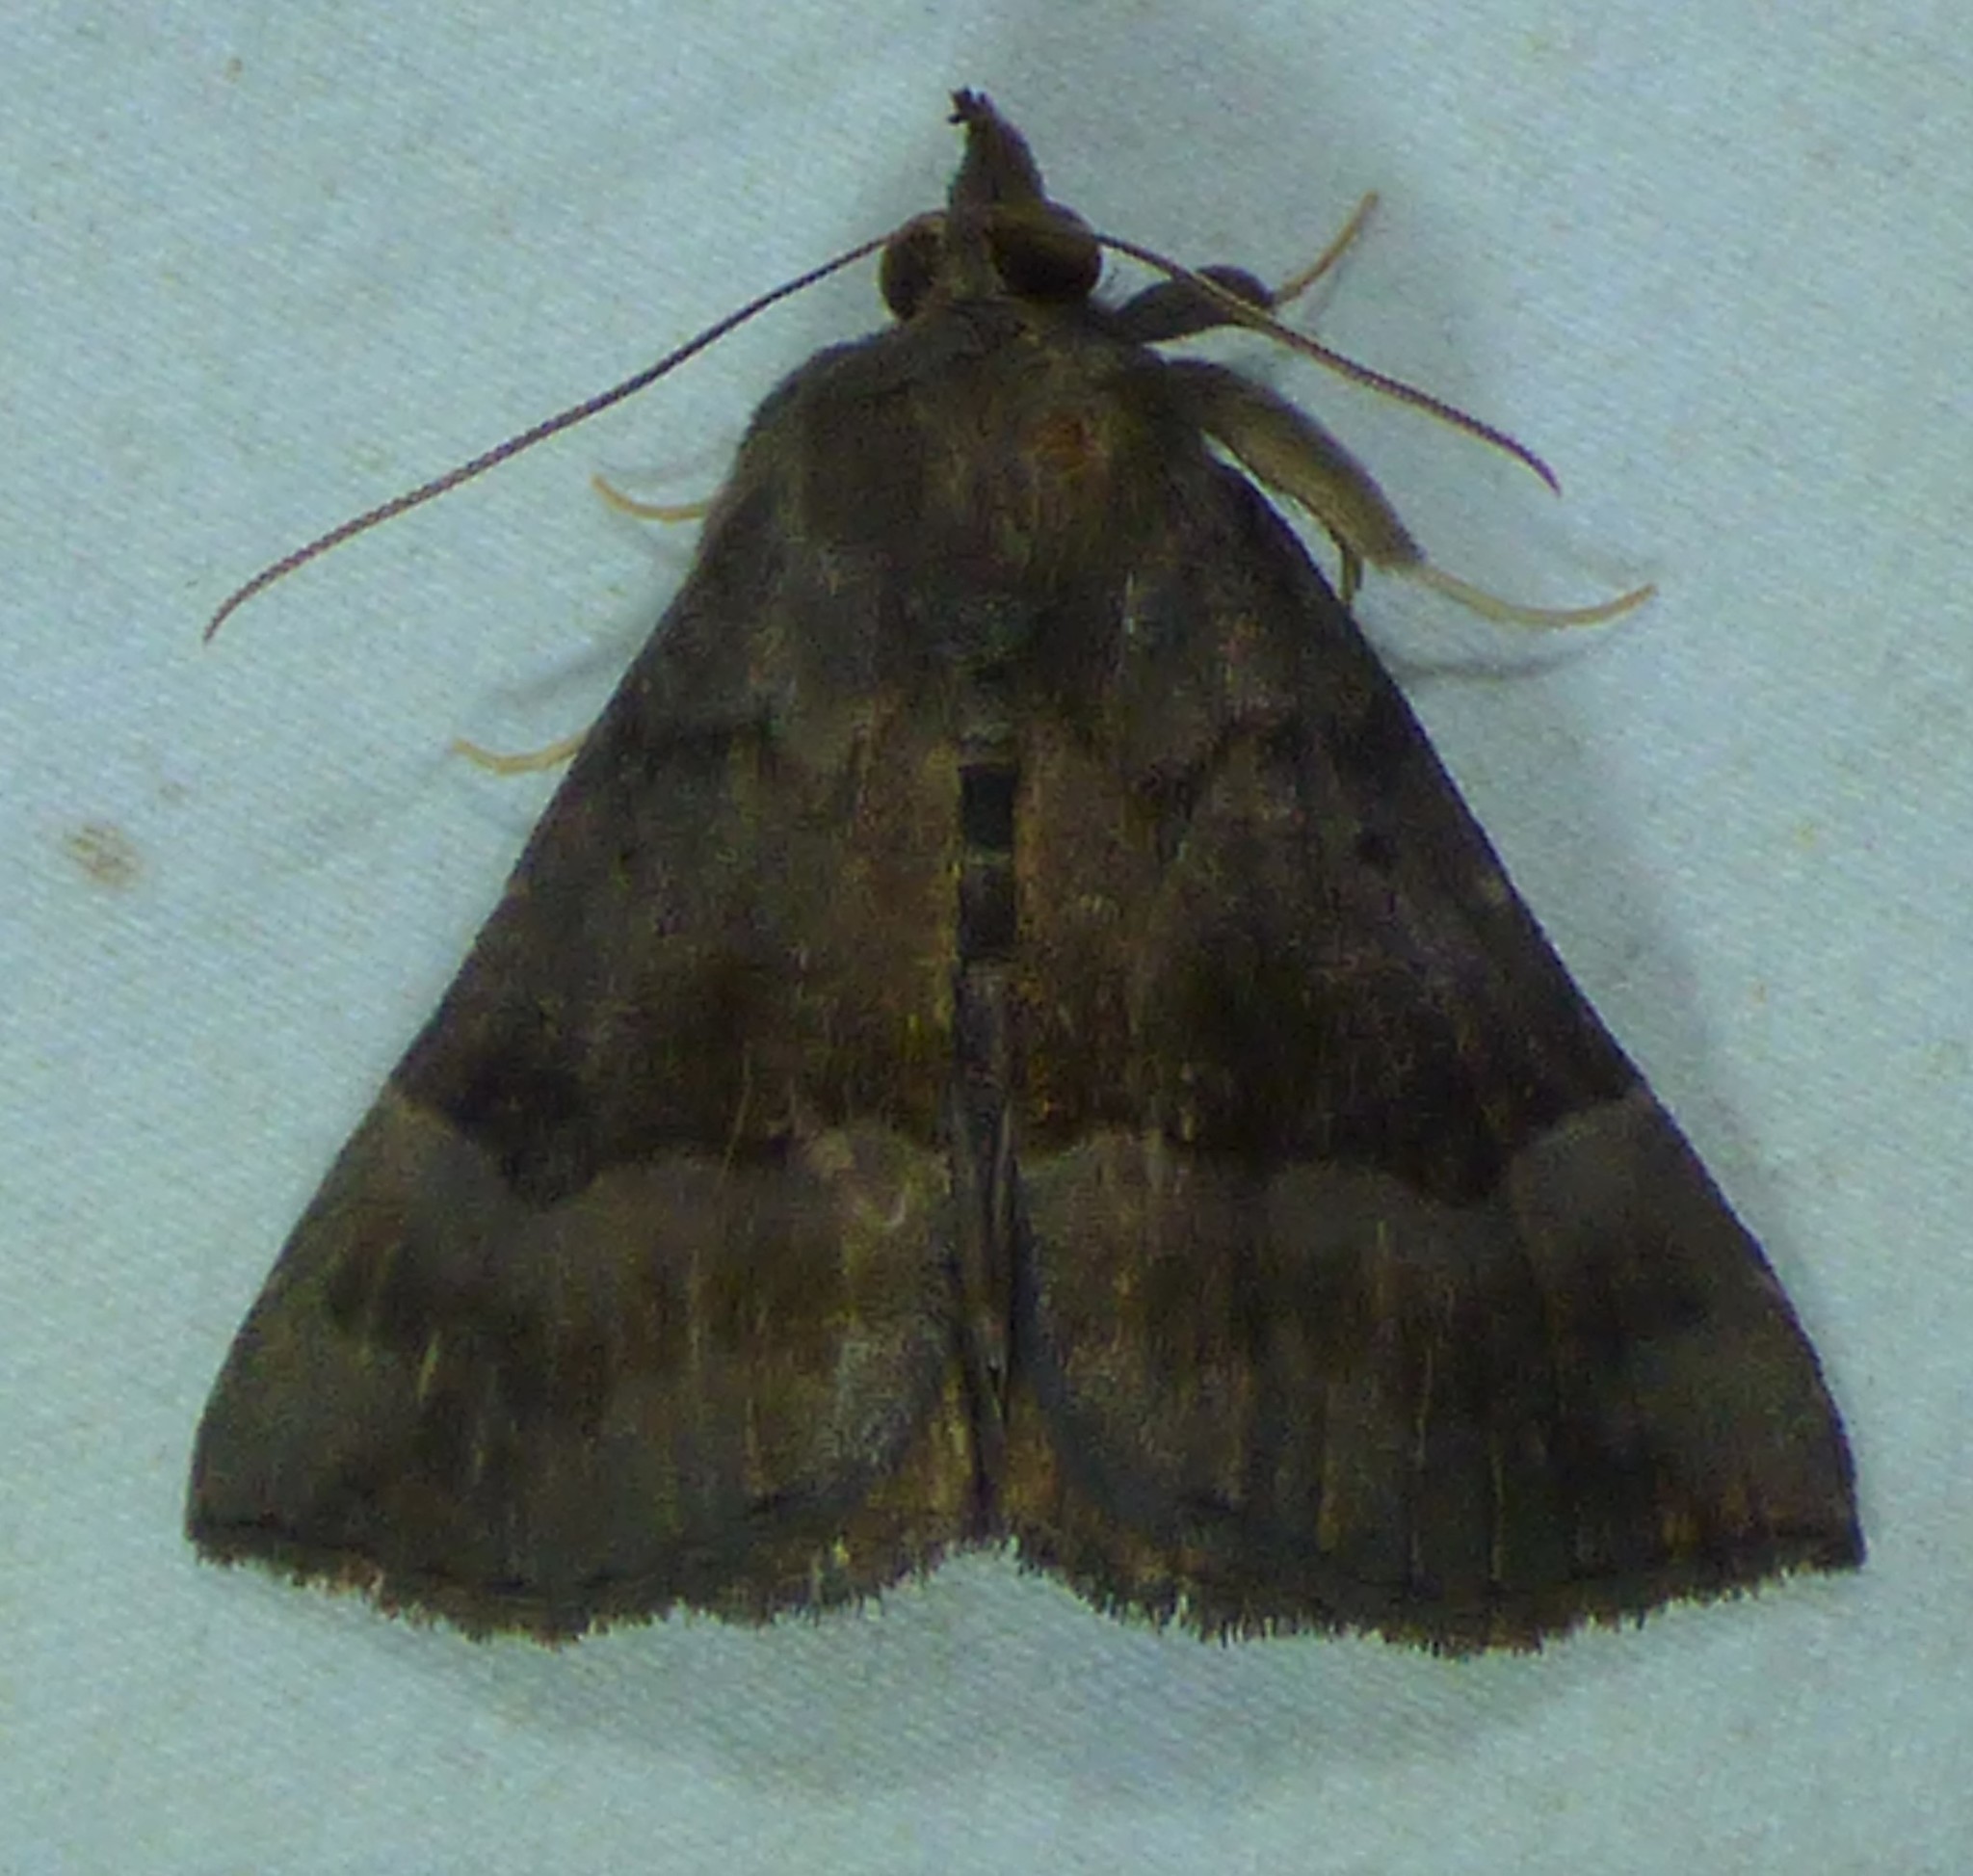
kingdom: Animalia
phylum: Arthropoda
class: Insecta
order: Lepidoptera
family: Erebidae
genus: Hypena
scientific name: Hypena madefactalis
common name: Gray-edged snout
